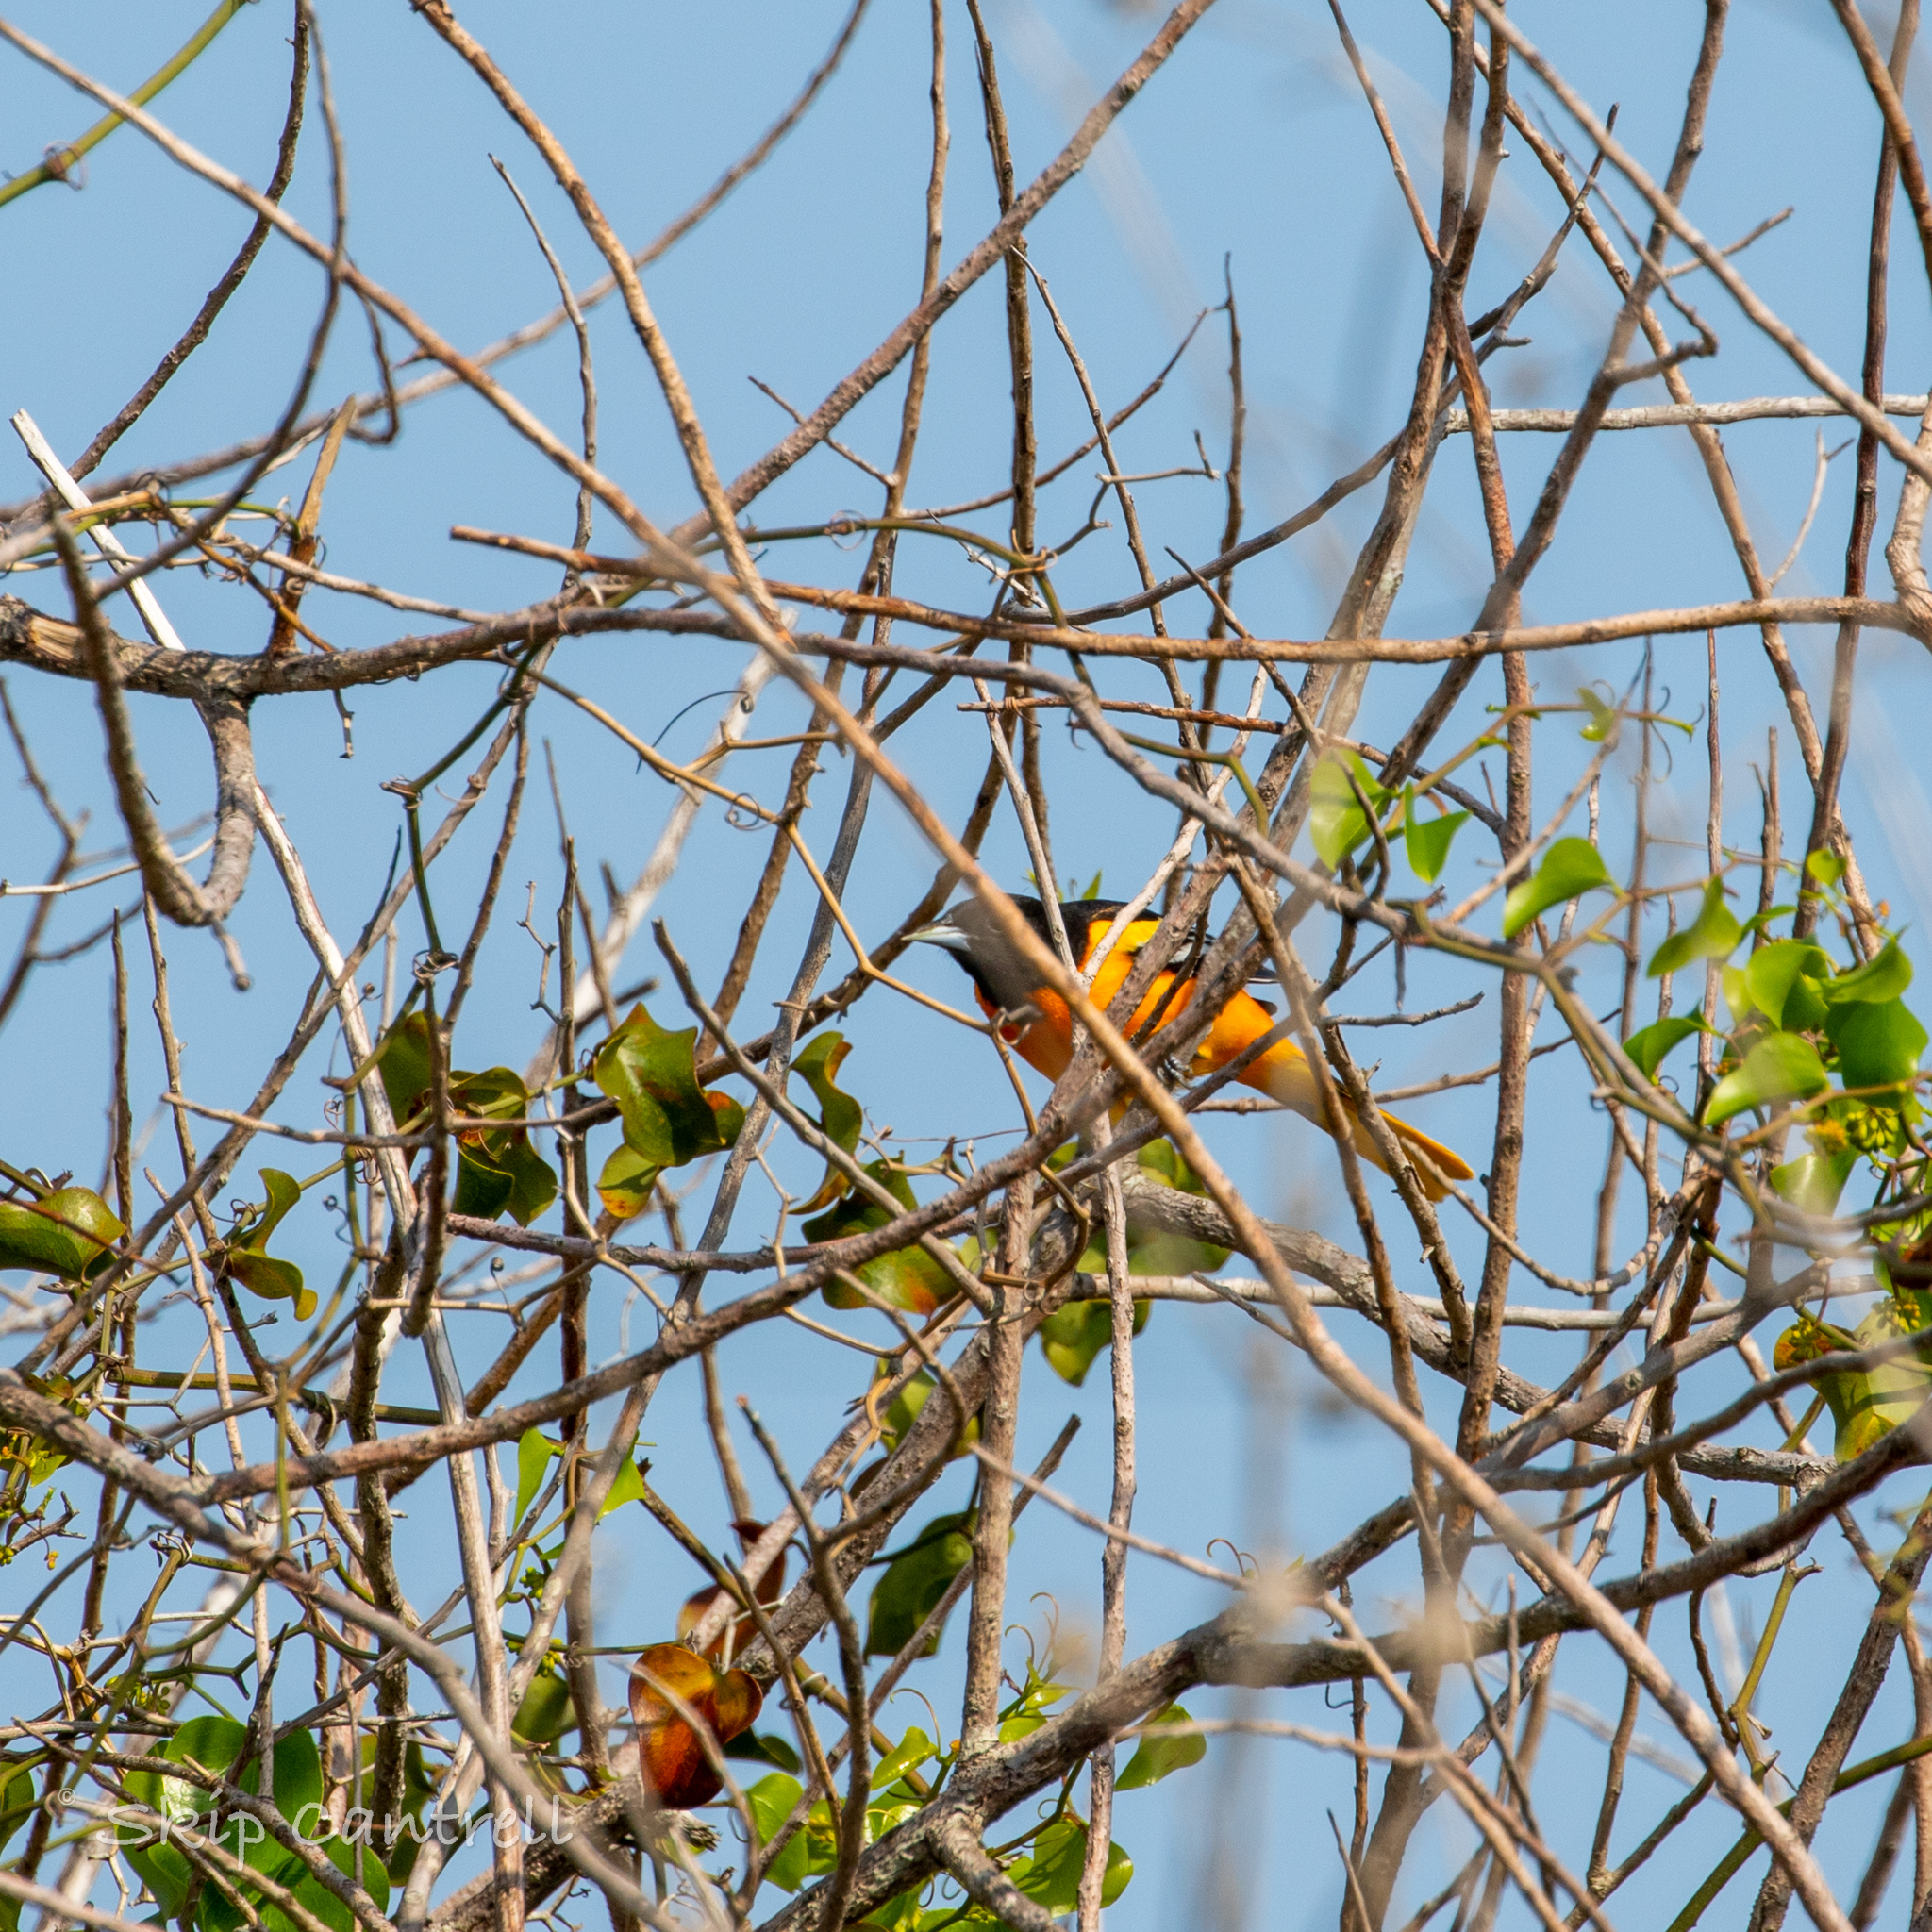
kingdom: Animalia
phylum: Chordata
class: Aves
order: Passeriformes
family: Icteridae
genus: Icterus
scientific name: Icterus galbula
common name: Baltimore oriole
